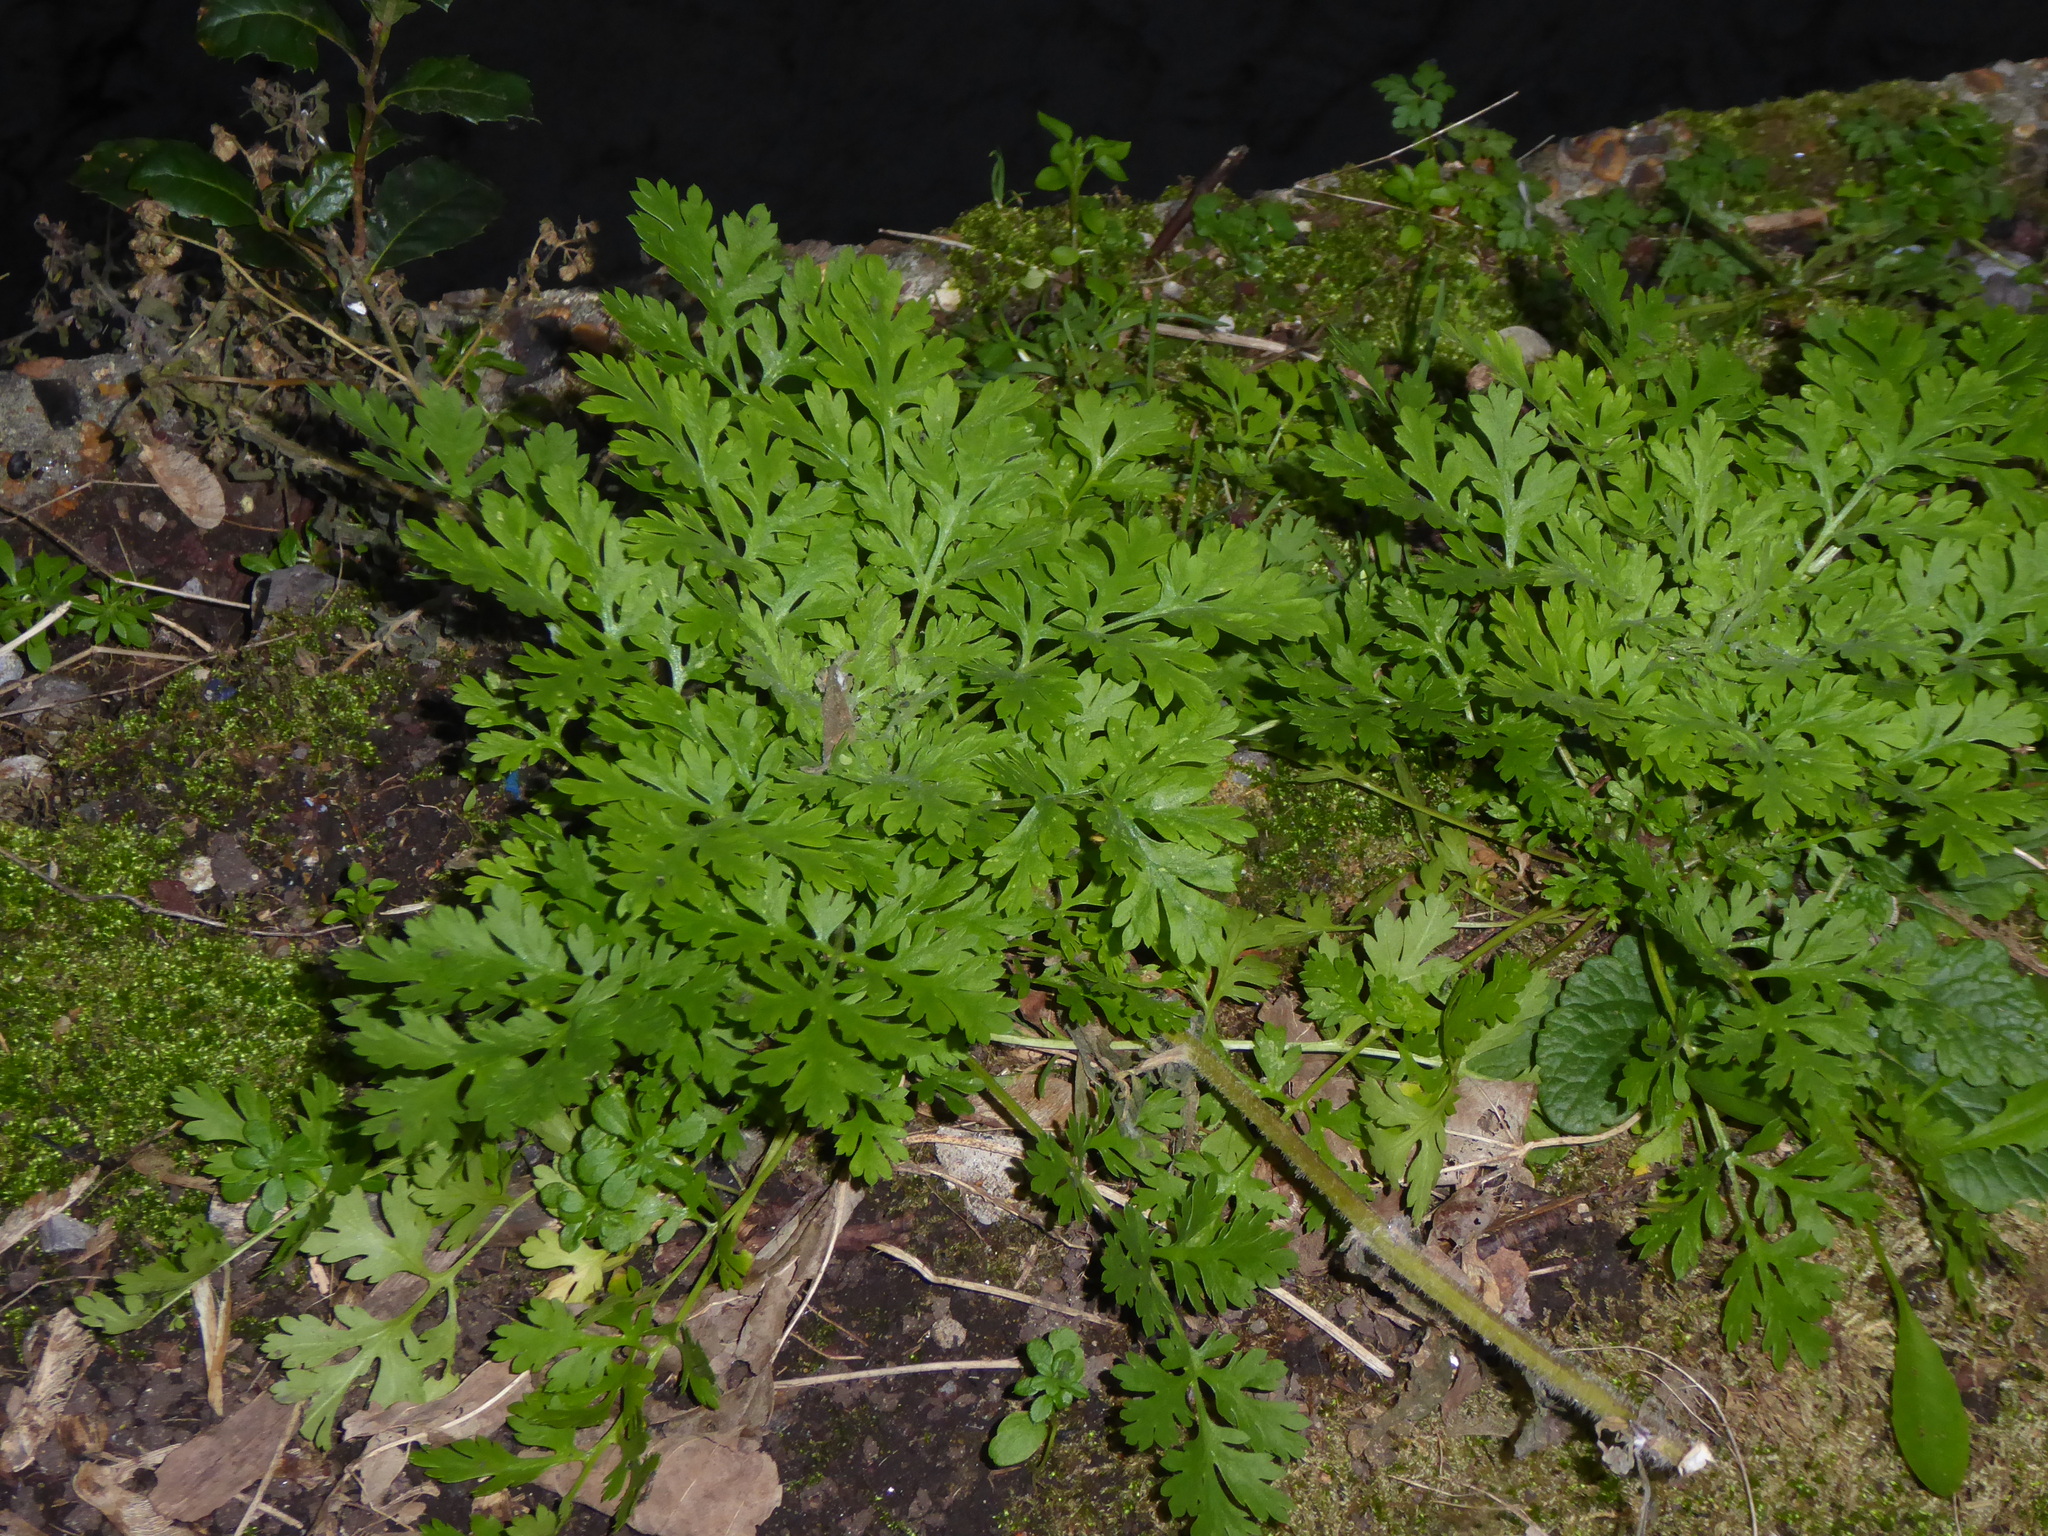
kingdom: Plantae
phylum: Tracheophyta
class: Magnoliopsida
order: Asterales
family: Asteraceae
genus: Tanacetum
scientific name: Tanacetum parthenium
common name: Feverfew
